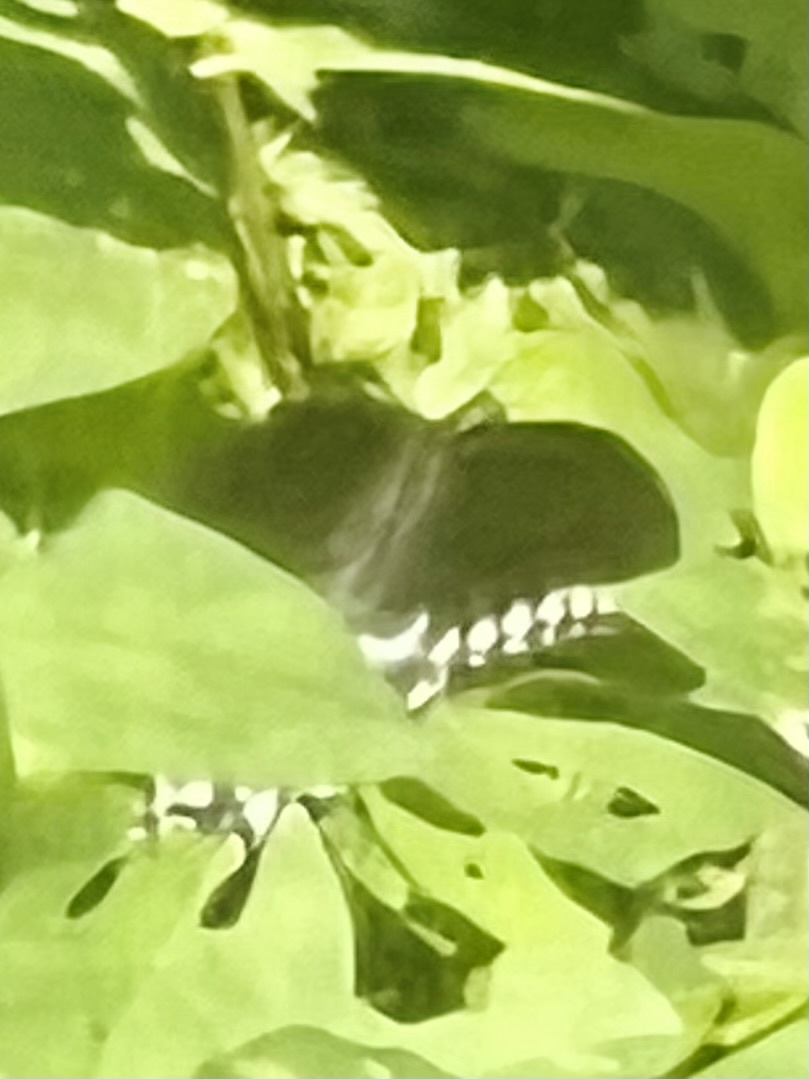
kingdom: Animalia
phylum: Arthropoda
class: Insecta
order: Lepidoptera
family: Papilionidae
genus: Papilio
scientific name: Papilio troilus
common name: Spicebush swallowtail
